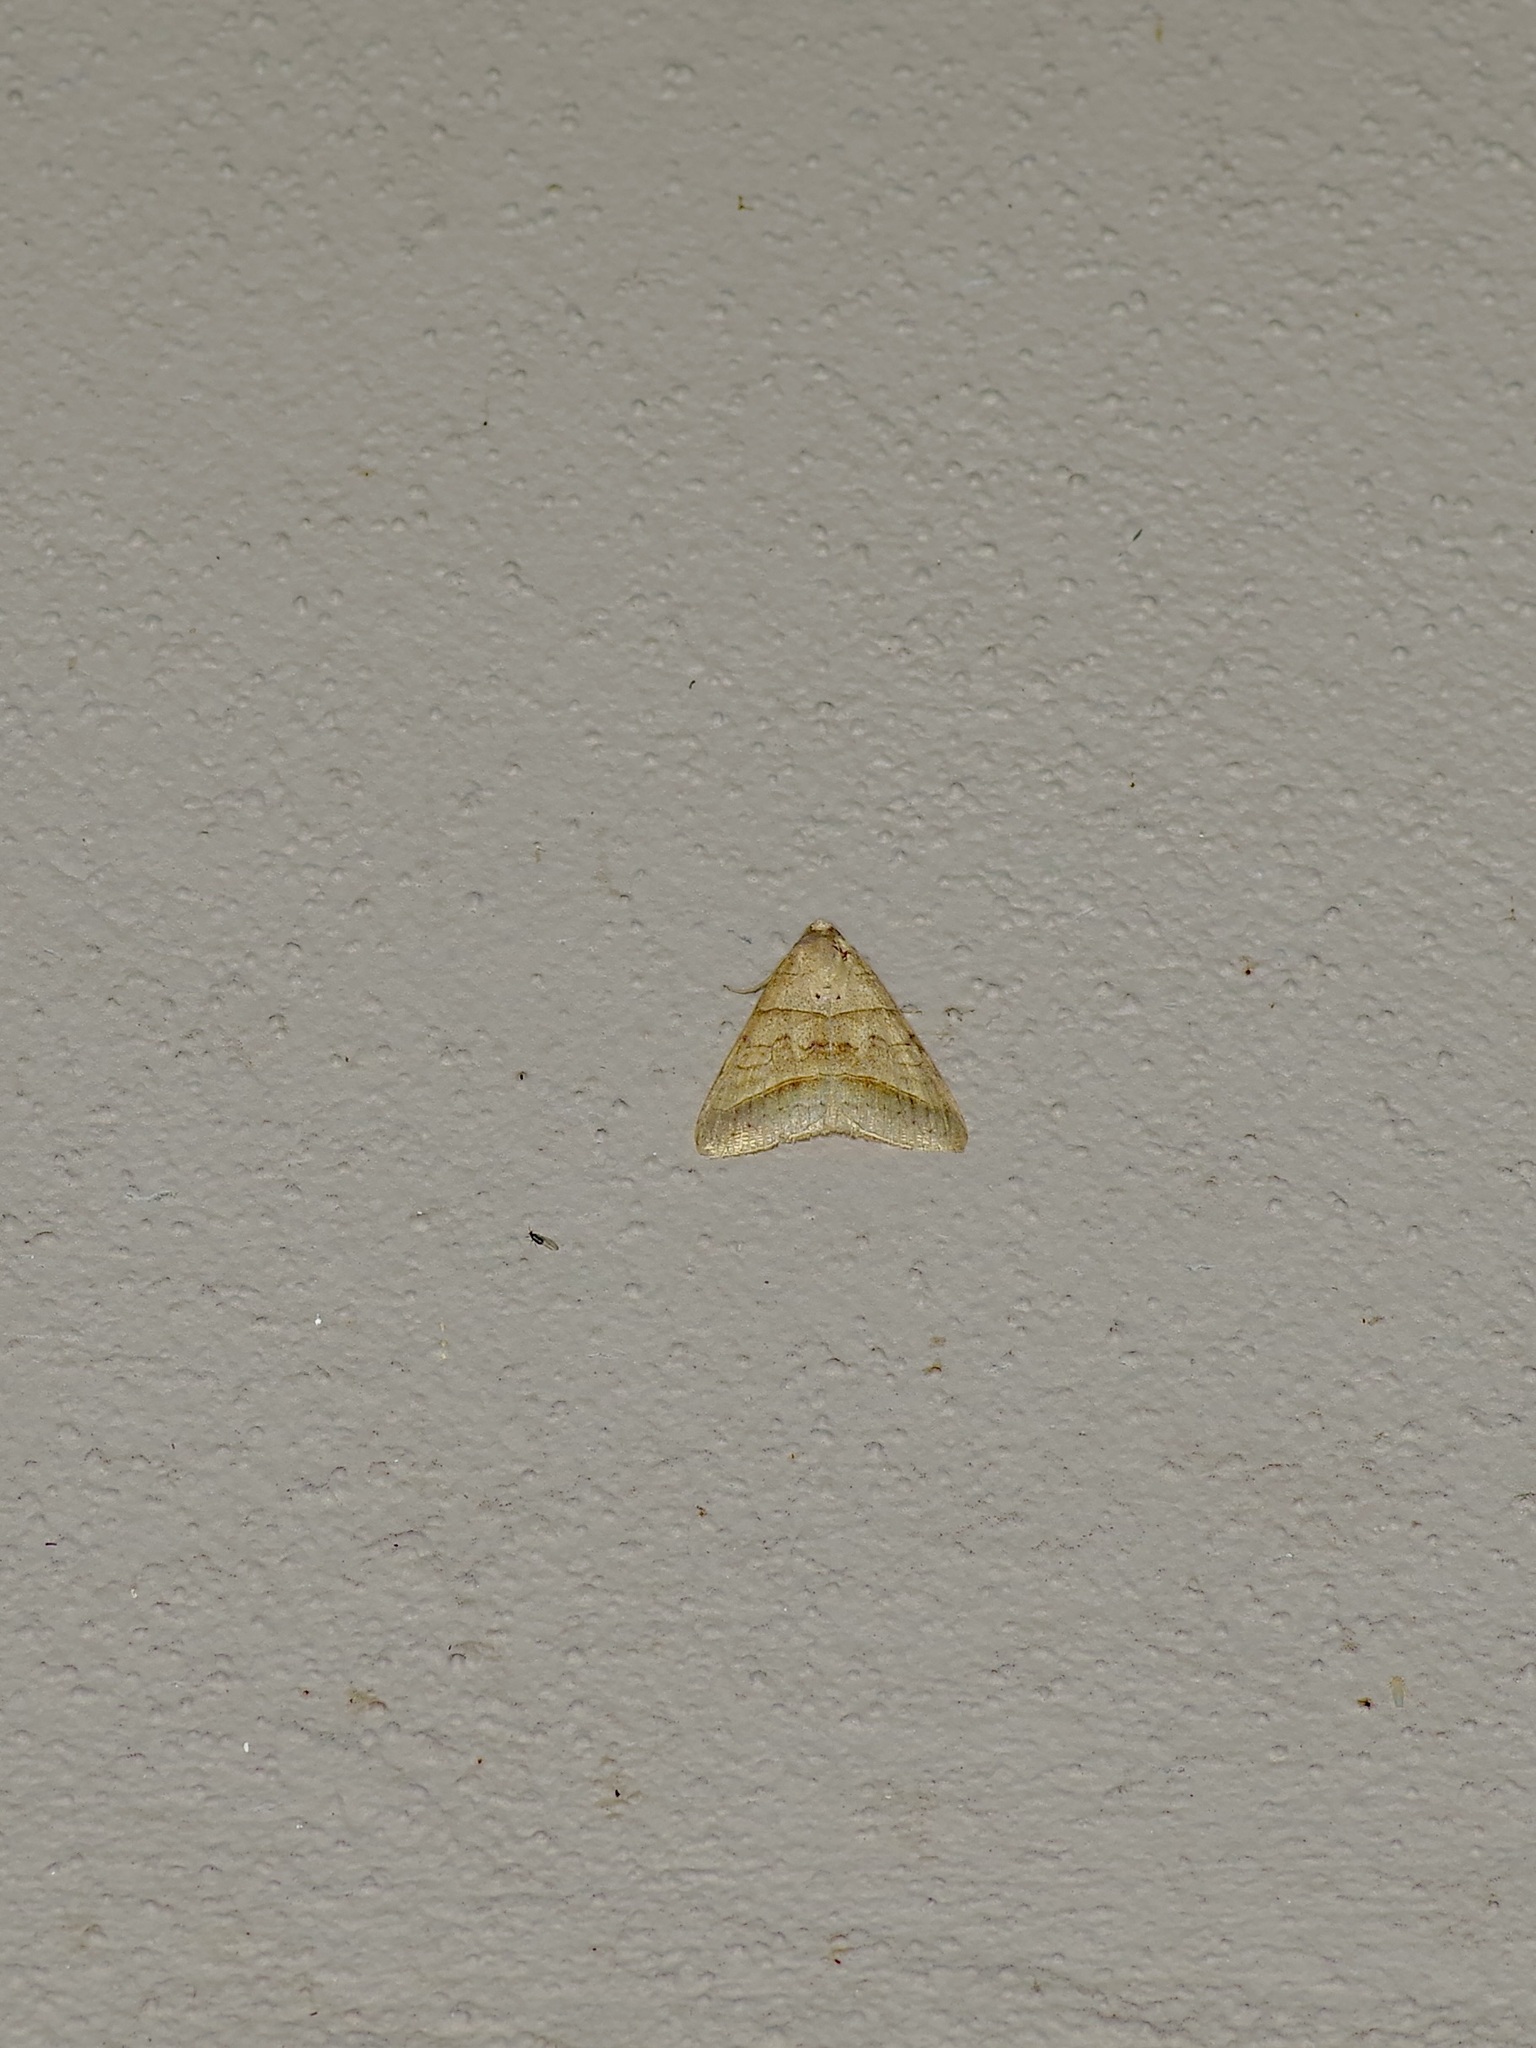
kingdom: Animalia
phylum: Arthropoda
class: Insecta
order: Lepidoptera
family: Erebidae
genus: Mocis
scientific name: Mocis texana
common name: Texas mocis moth
